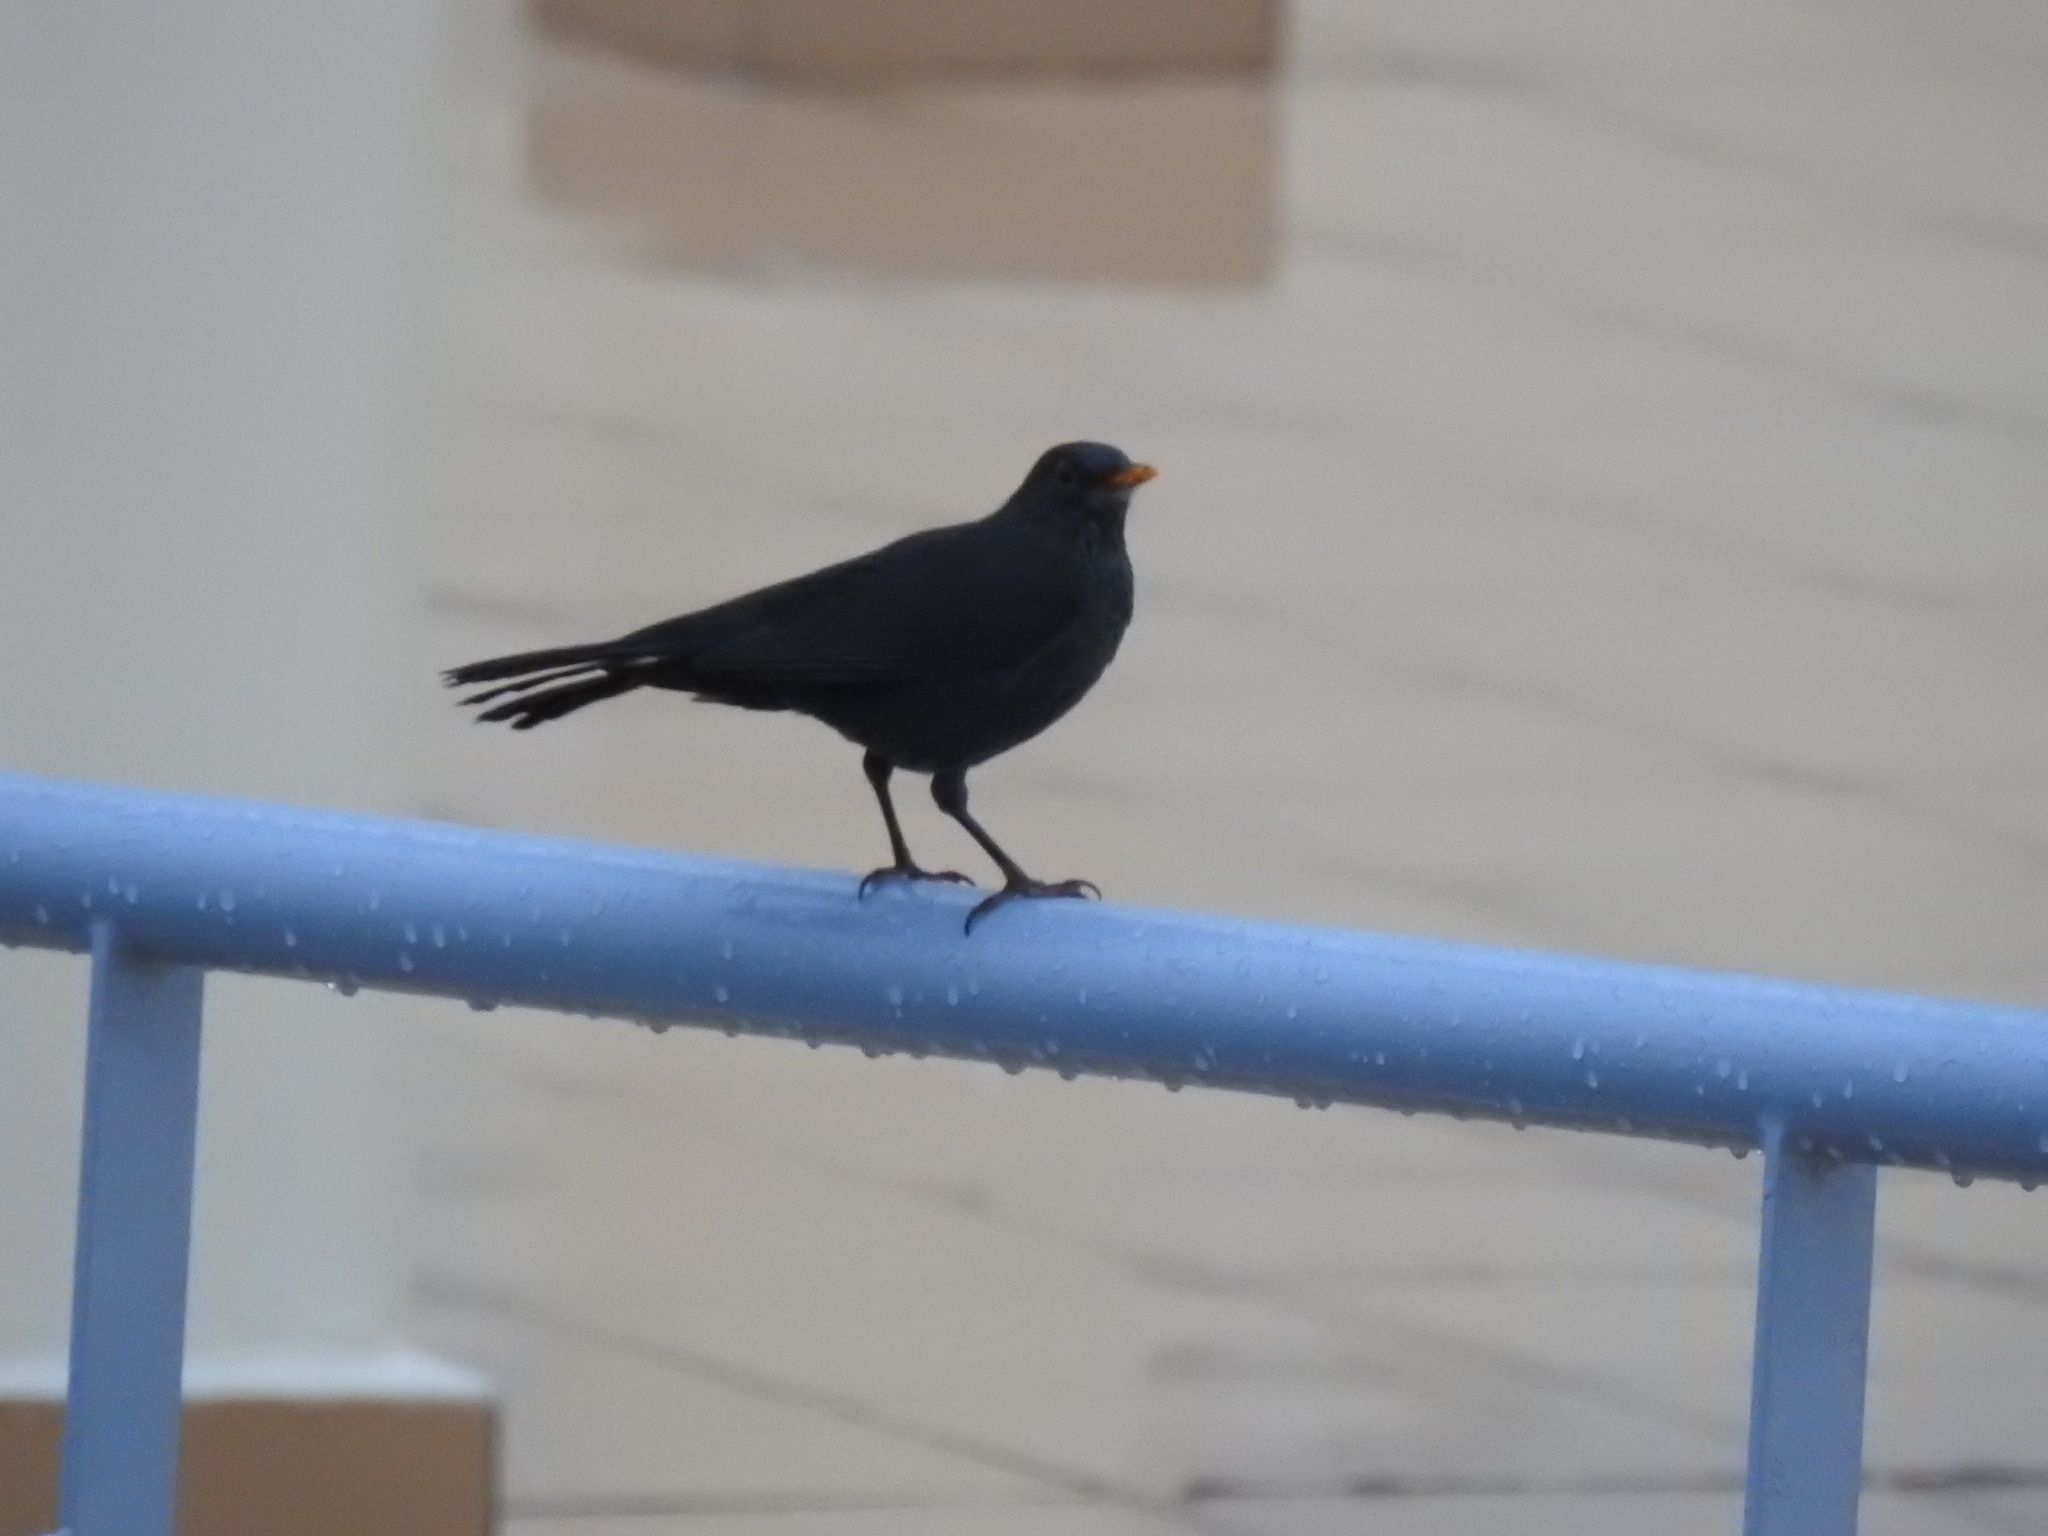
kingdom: Animalia
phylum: Chordata
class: Aves
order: Passeriformes
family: Turdidae
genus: Turdus
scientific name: Turdus merula
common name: Common blackbird
